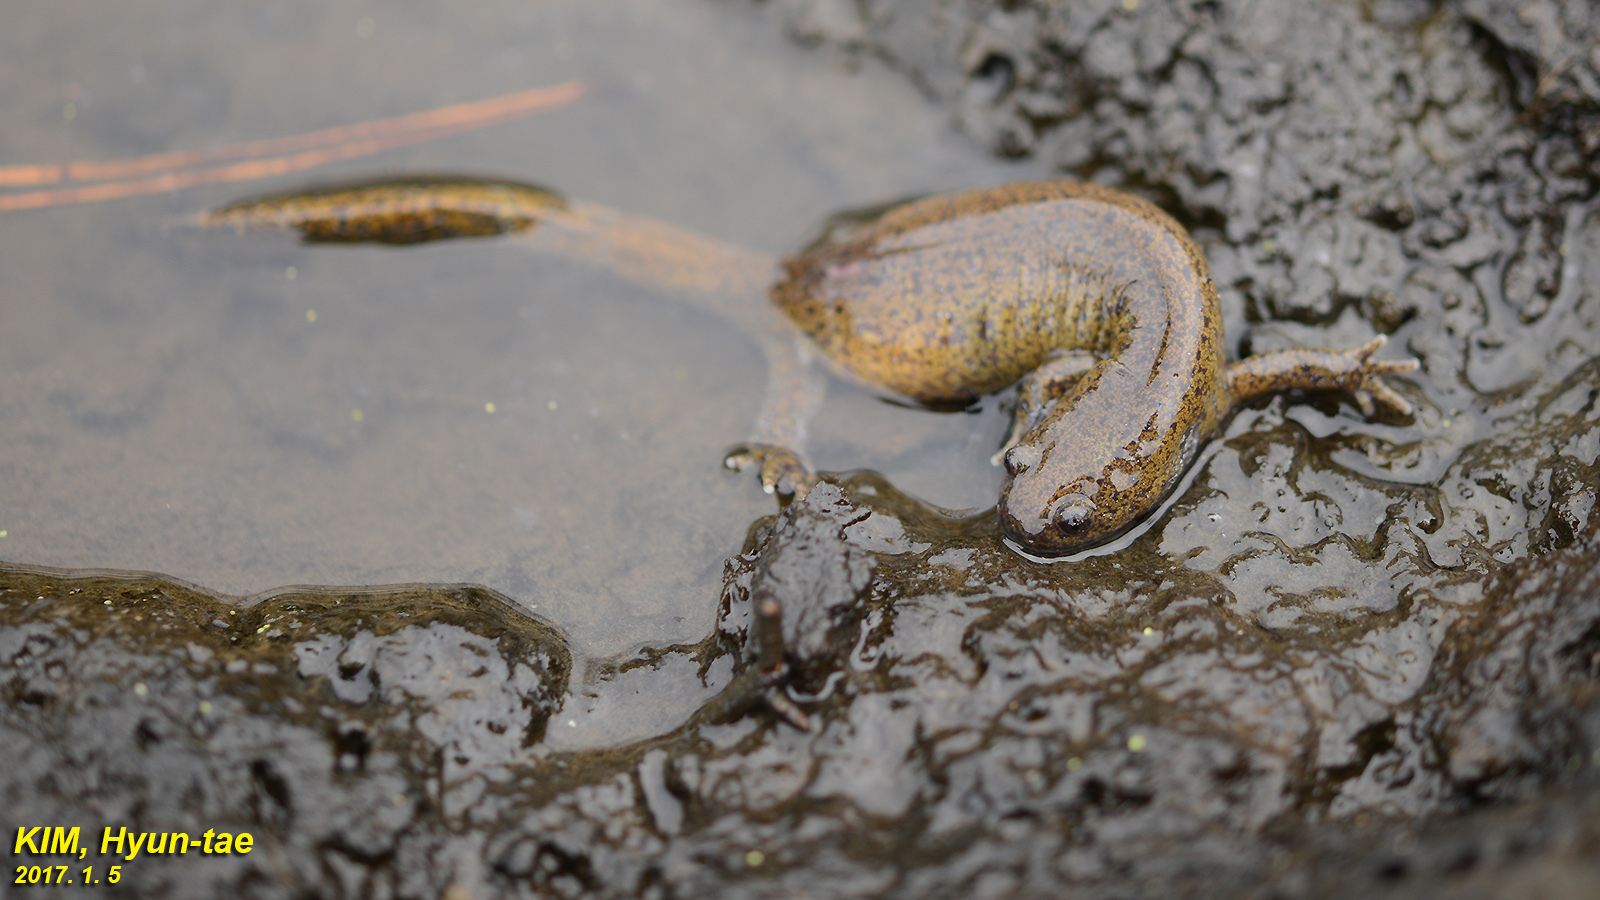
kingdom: Animalia
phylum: Chordata
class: Amphibia
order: Caudata
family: Hynobiidae
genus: Hynobius
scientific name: Hynobius quelpaertensis
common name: Cheju salamander
